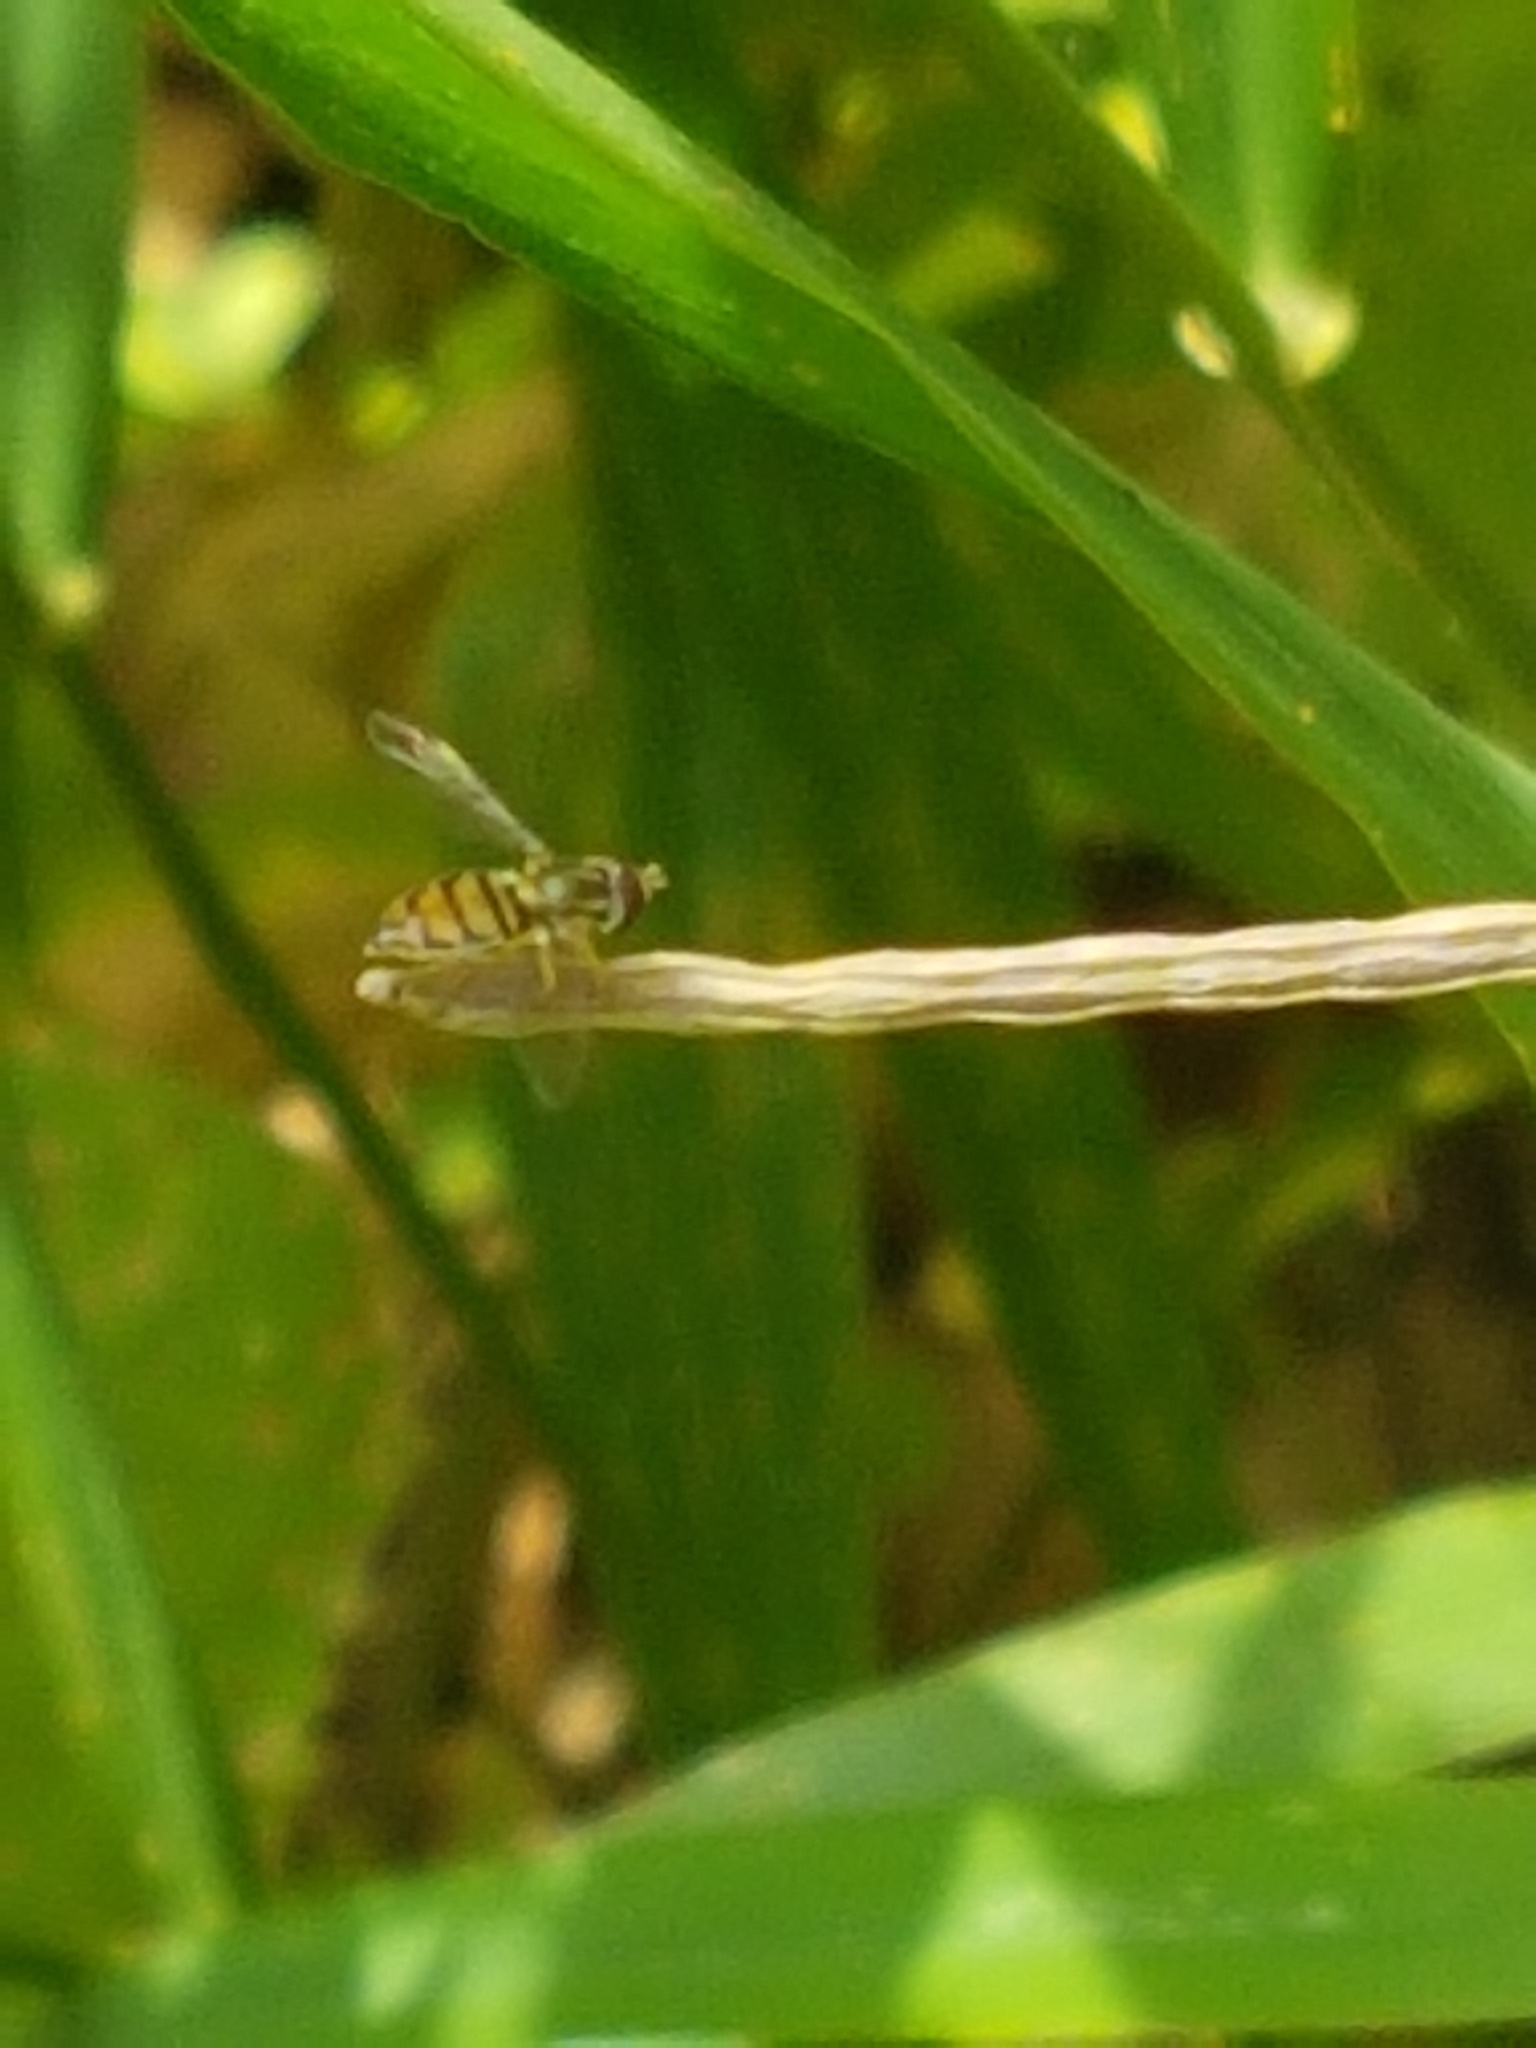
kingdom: Animalia
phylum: Arthropoda
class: Insecta
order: Diptera
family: Syrphidae
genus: Toxomerus
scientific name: Toxomerus marginatus
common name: Syrphid fly
